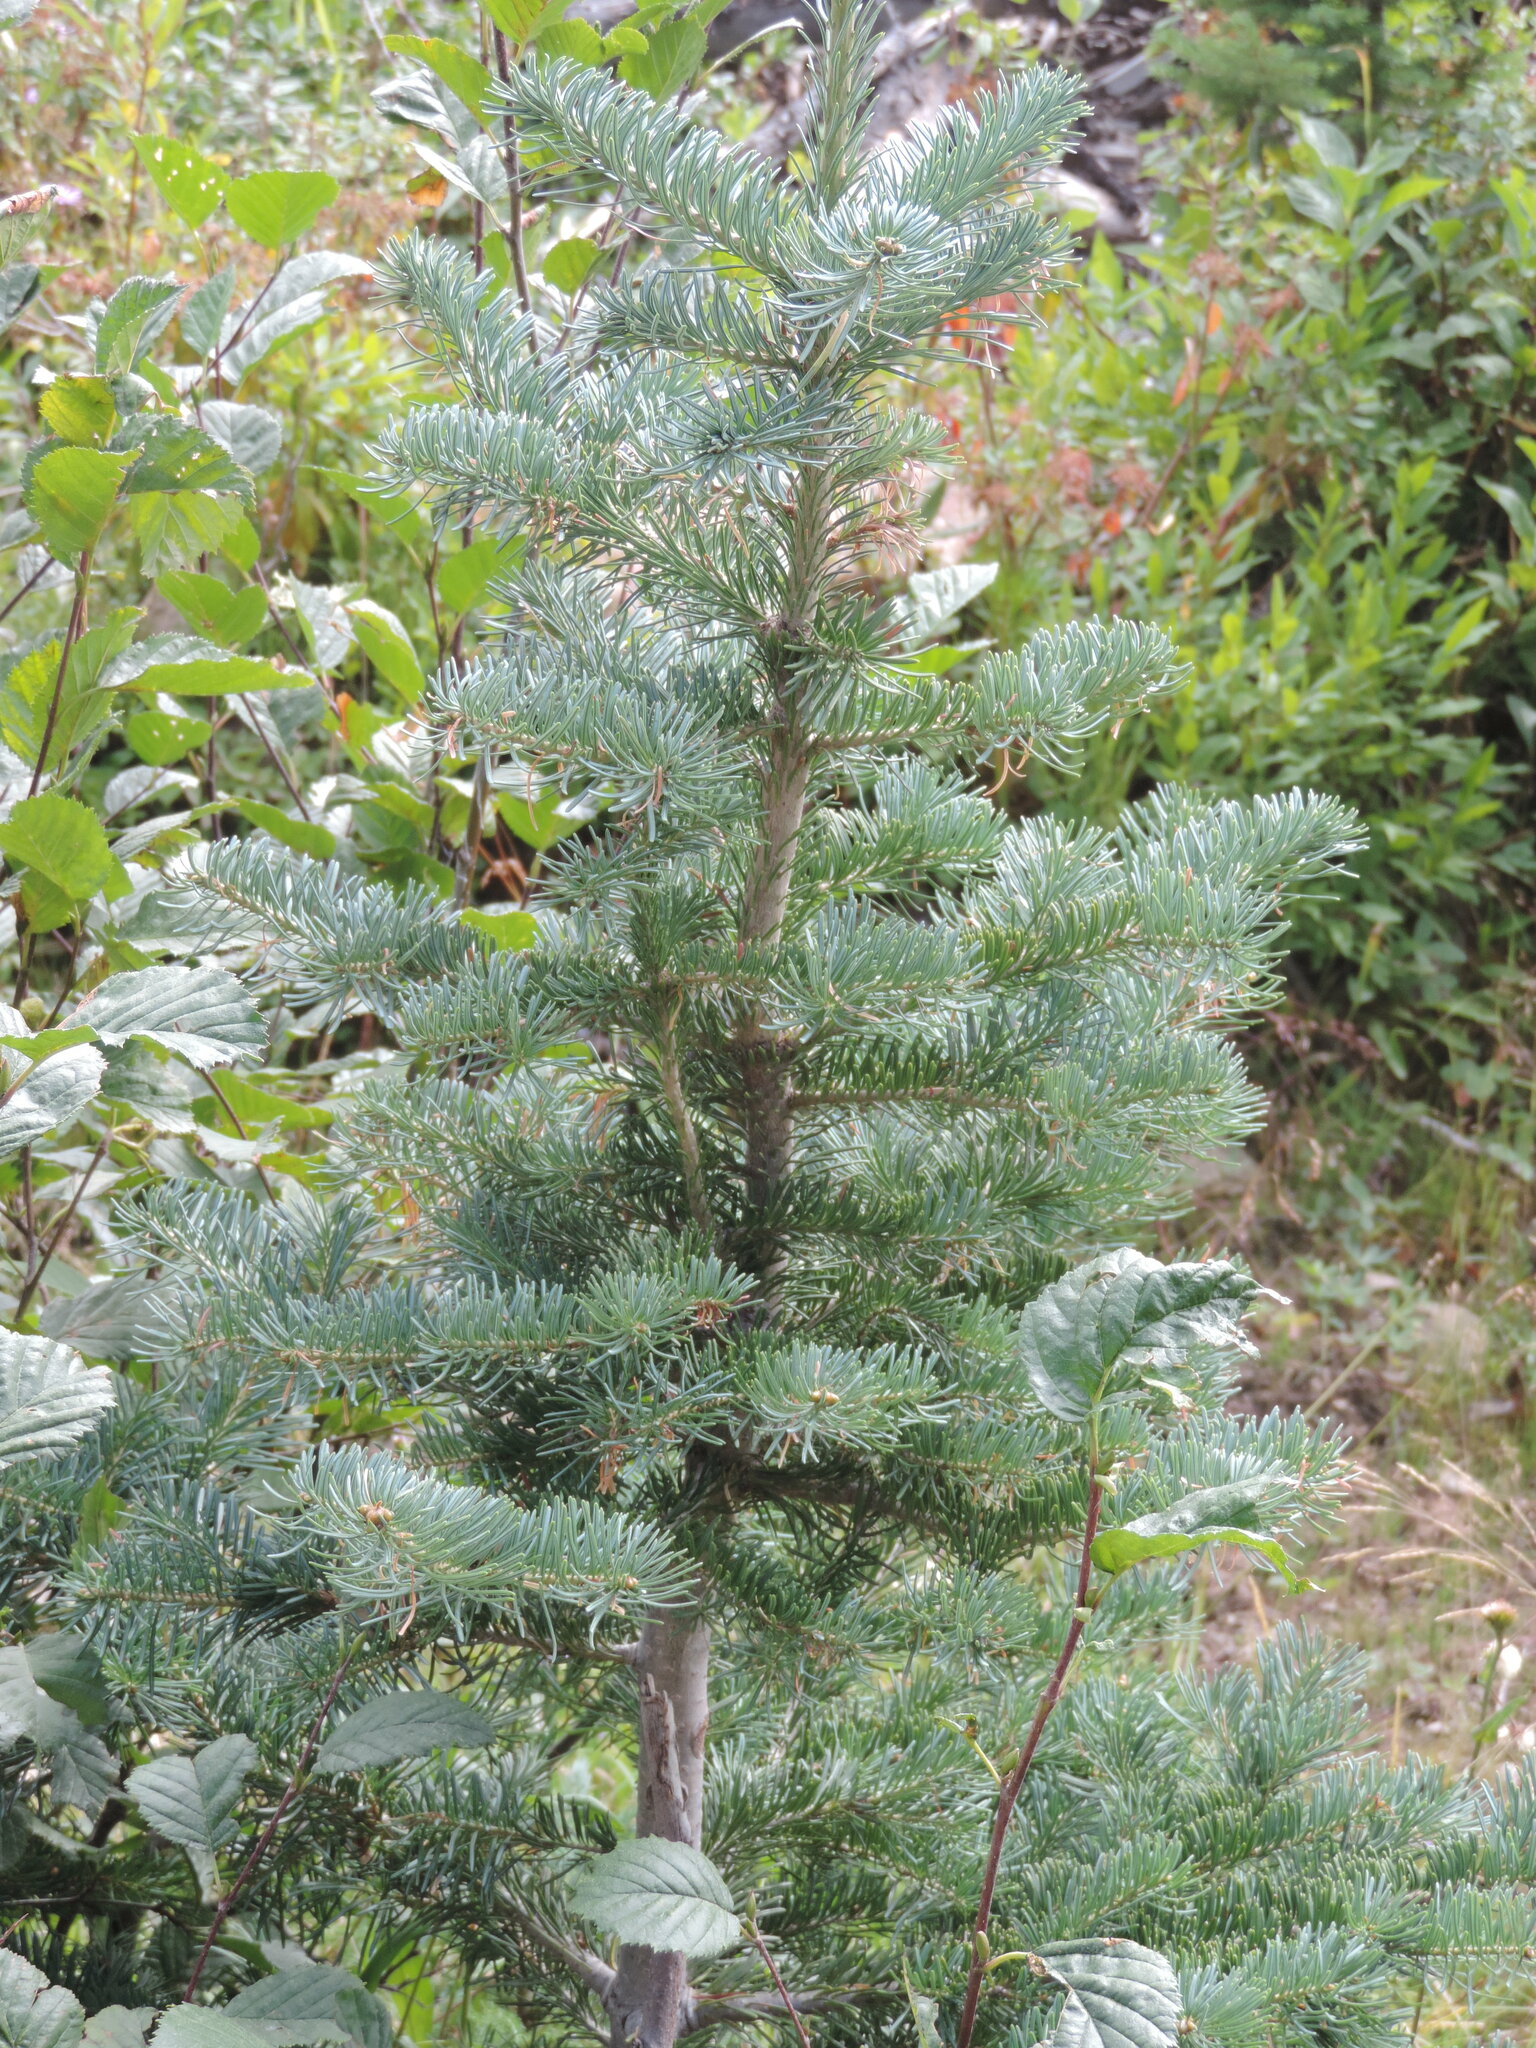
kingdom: Plantae
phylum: Tracheophyta
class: Pinopsida
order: Pinales
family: Pinaceae
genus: Abies
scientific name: Abies lasiocarpa
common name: Subalpine fir
